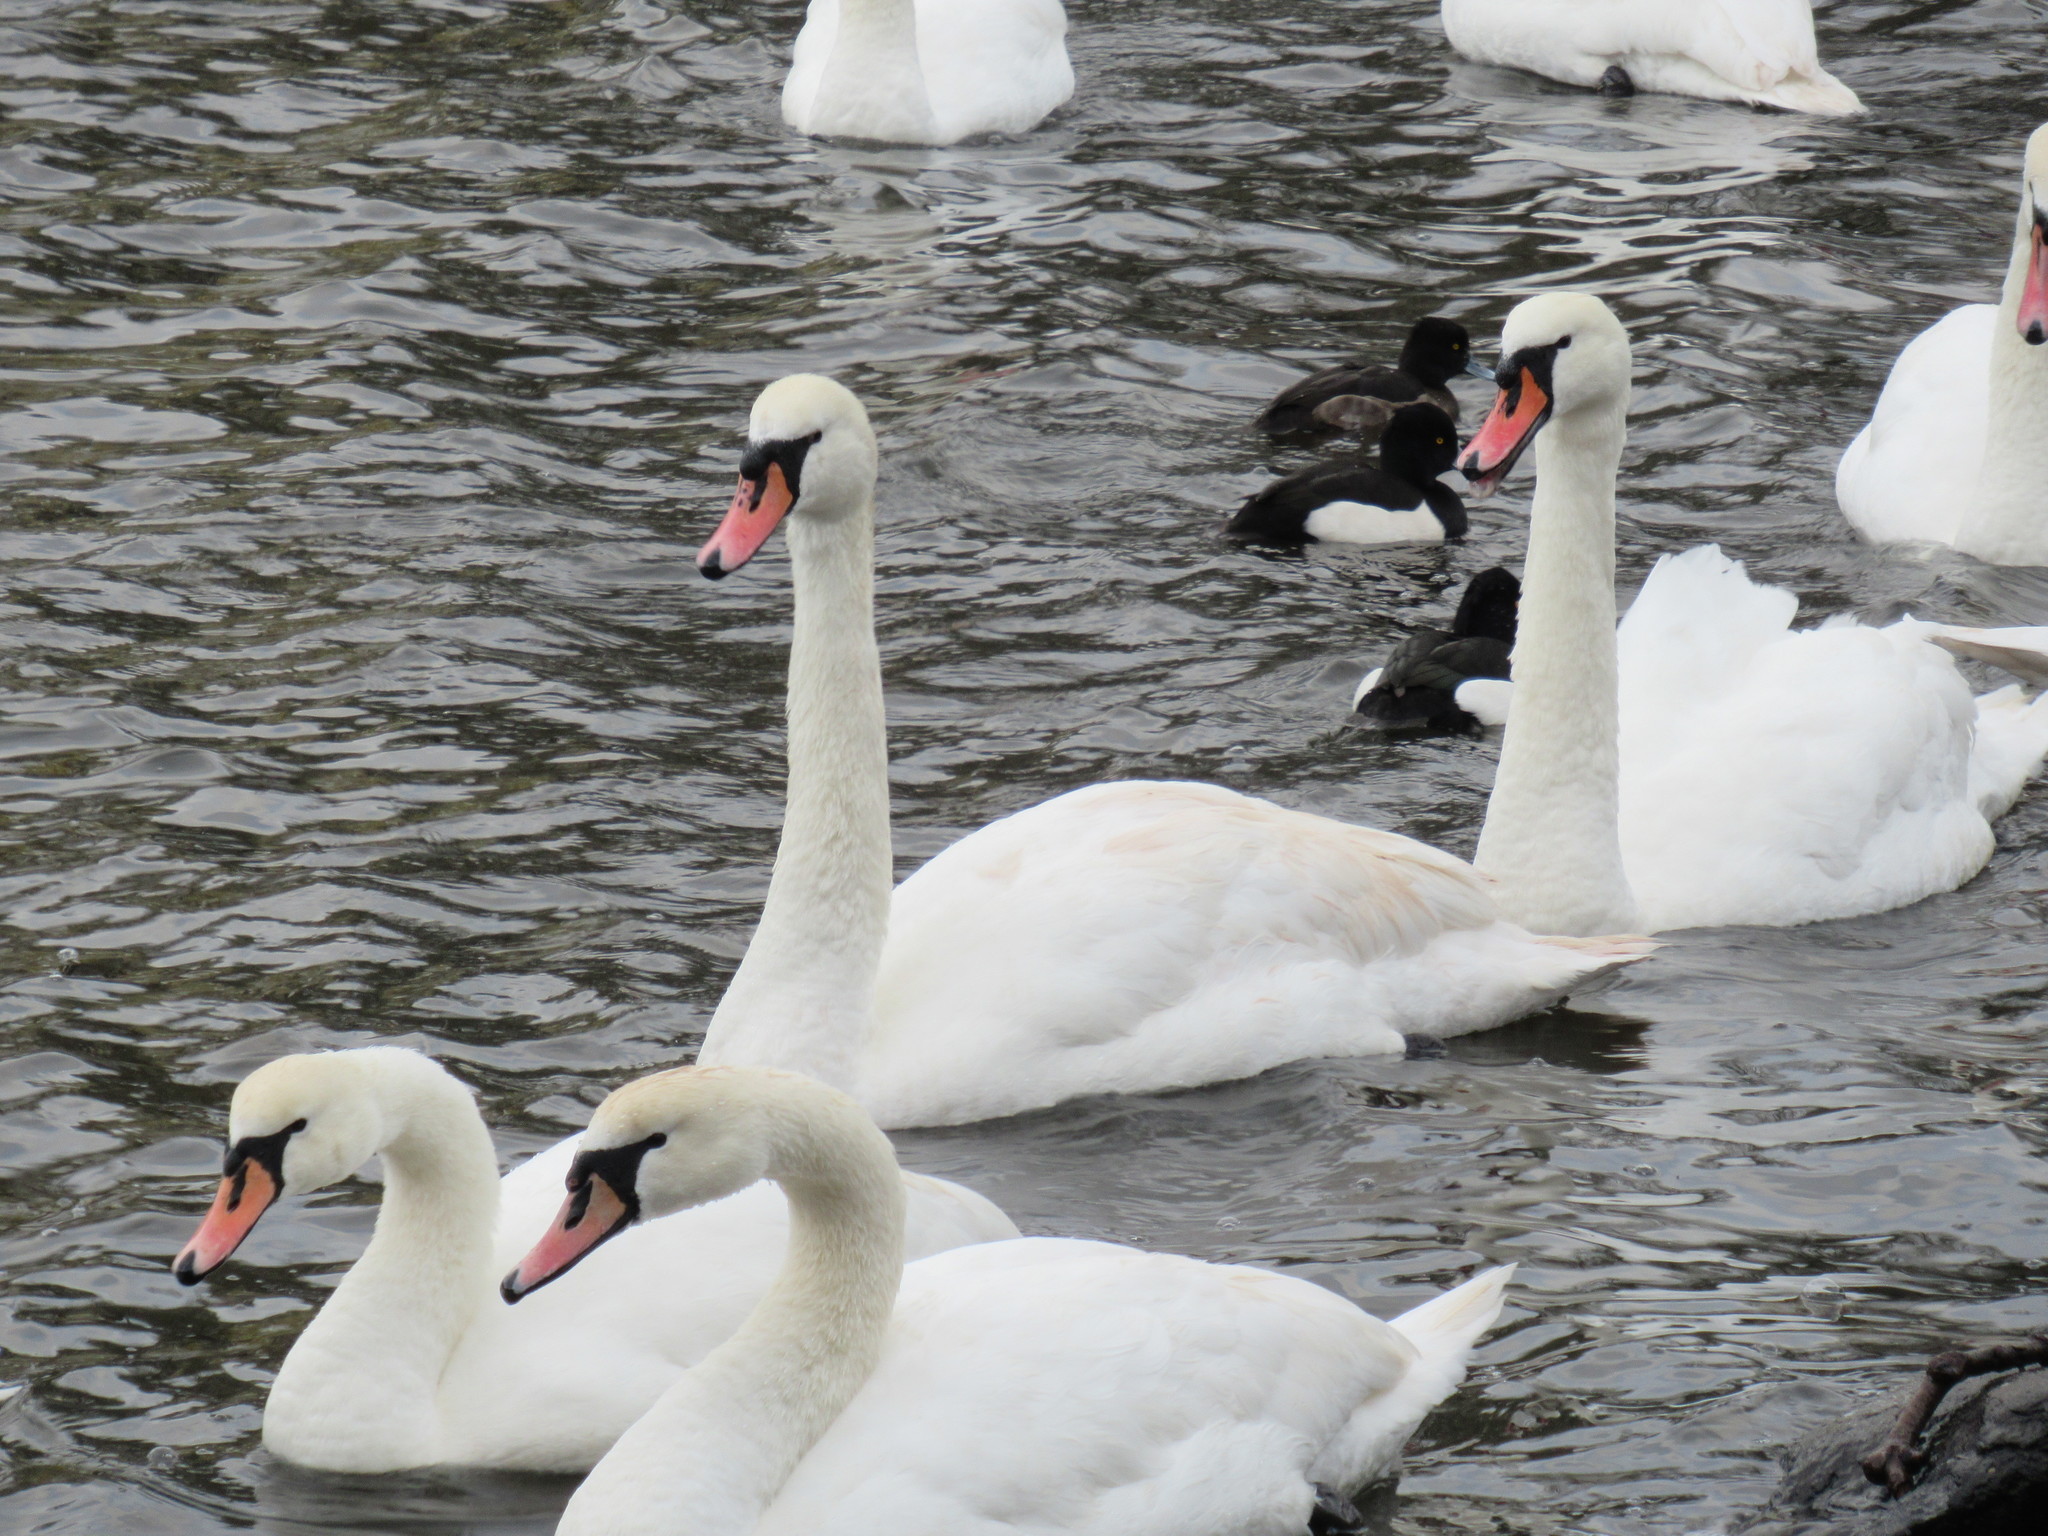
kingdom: Animalia
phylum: Chordata
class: Aves
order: Anseriformes
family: Anatidae
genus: Cygnus
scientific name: Cygnus olor
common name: Mute swan
